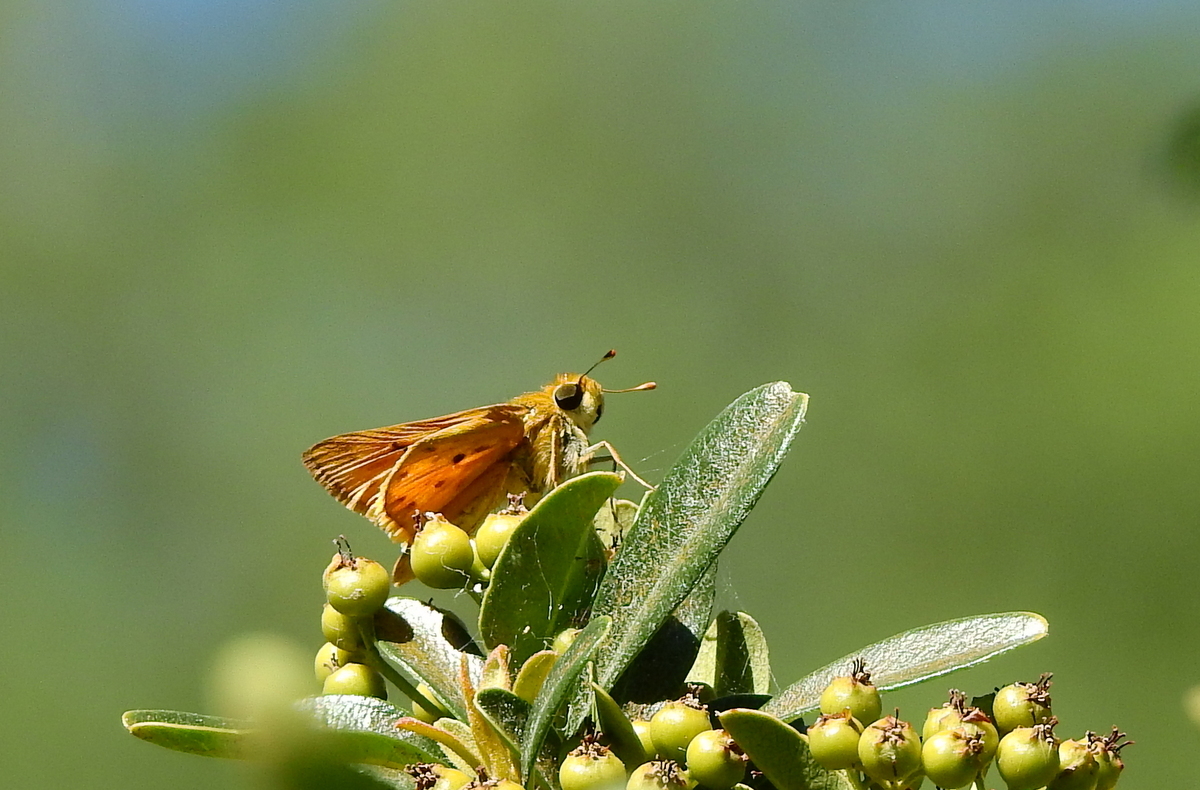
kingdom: Animalia
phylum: Arthropoda
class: Insecta
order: Lepidoptera
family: Hesperiidae
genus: Hylephila
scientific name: Hylephila phyleus
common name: Fiery skipper
